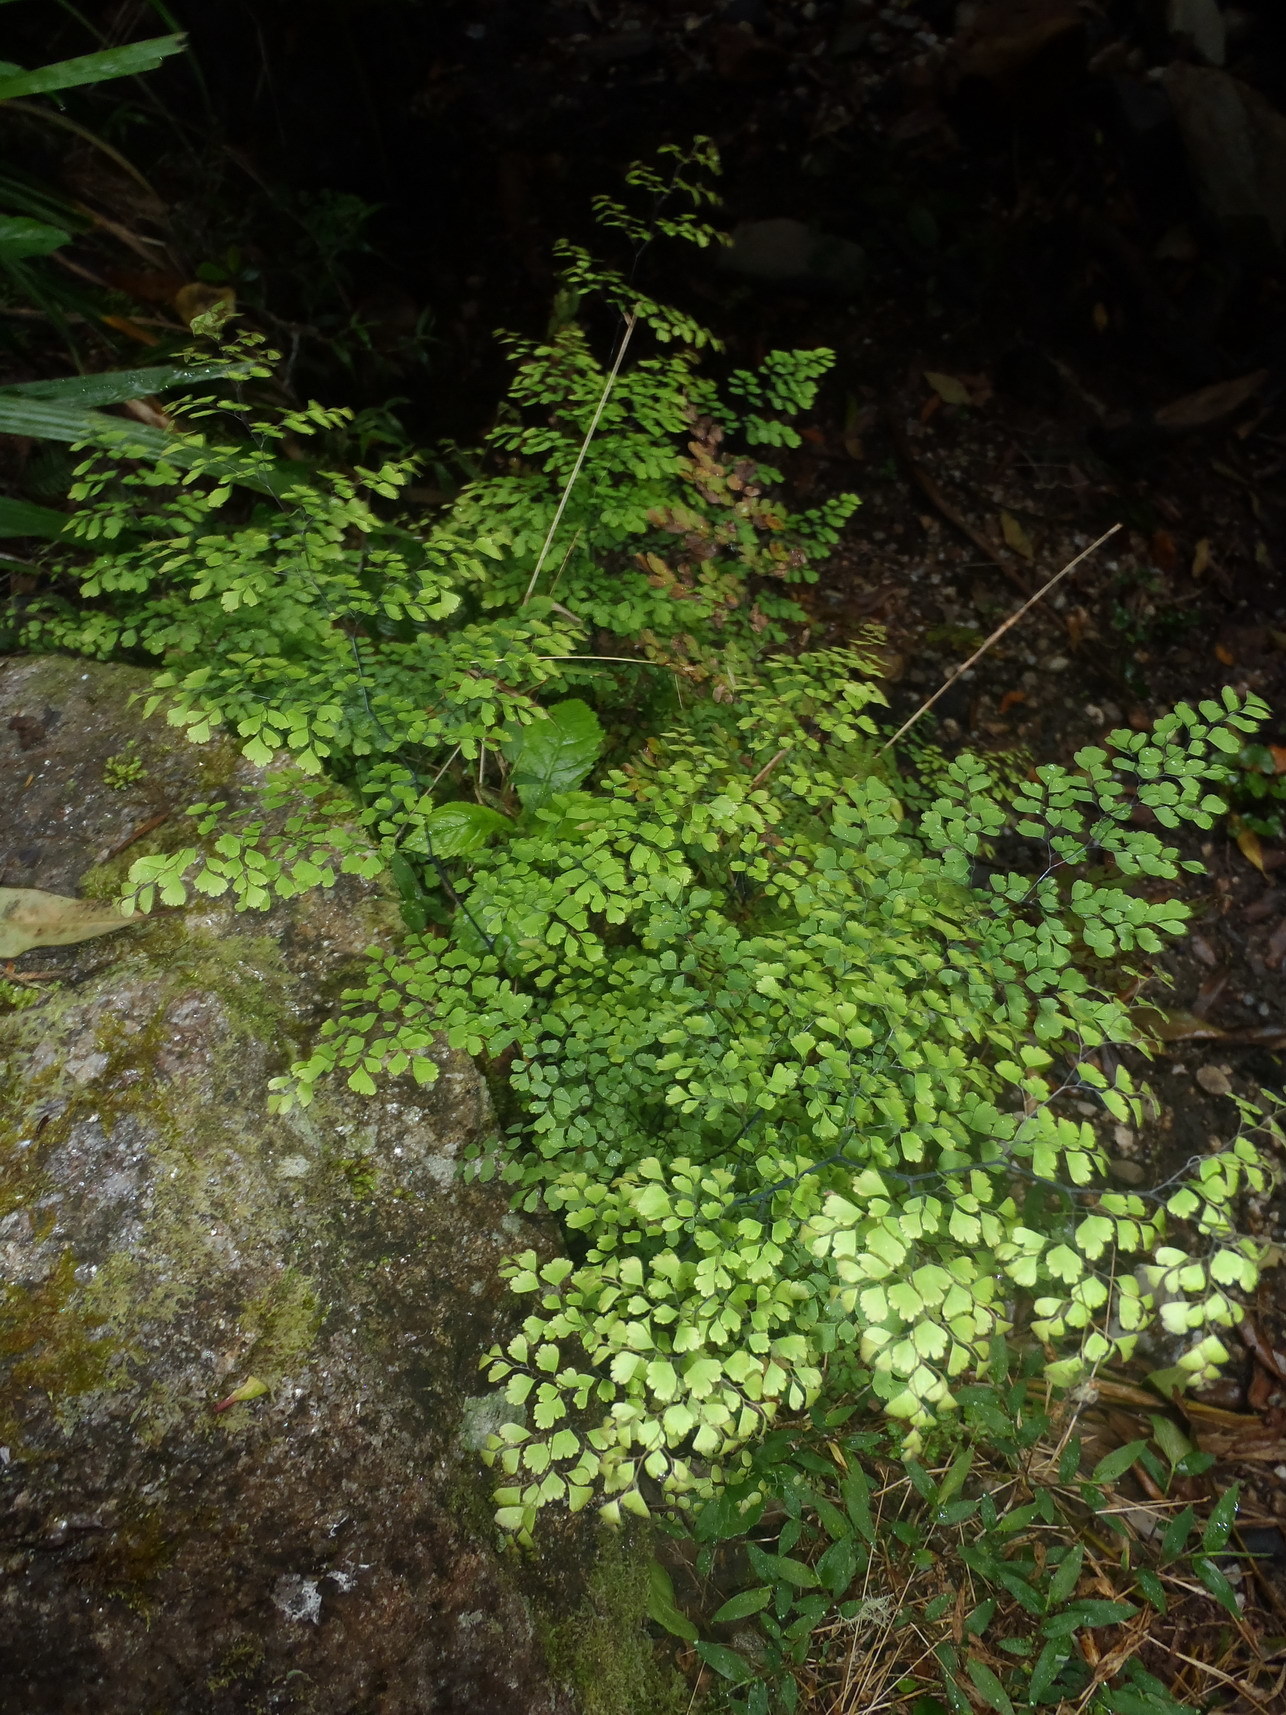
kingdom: Plantae
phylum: Tracheophyta
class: Polypodiopsida
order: Polypodiales
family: Pteridaceae
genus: Adiantum
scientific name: Adiantum capillus-veneris
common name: Maidenhair fern
